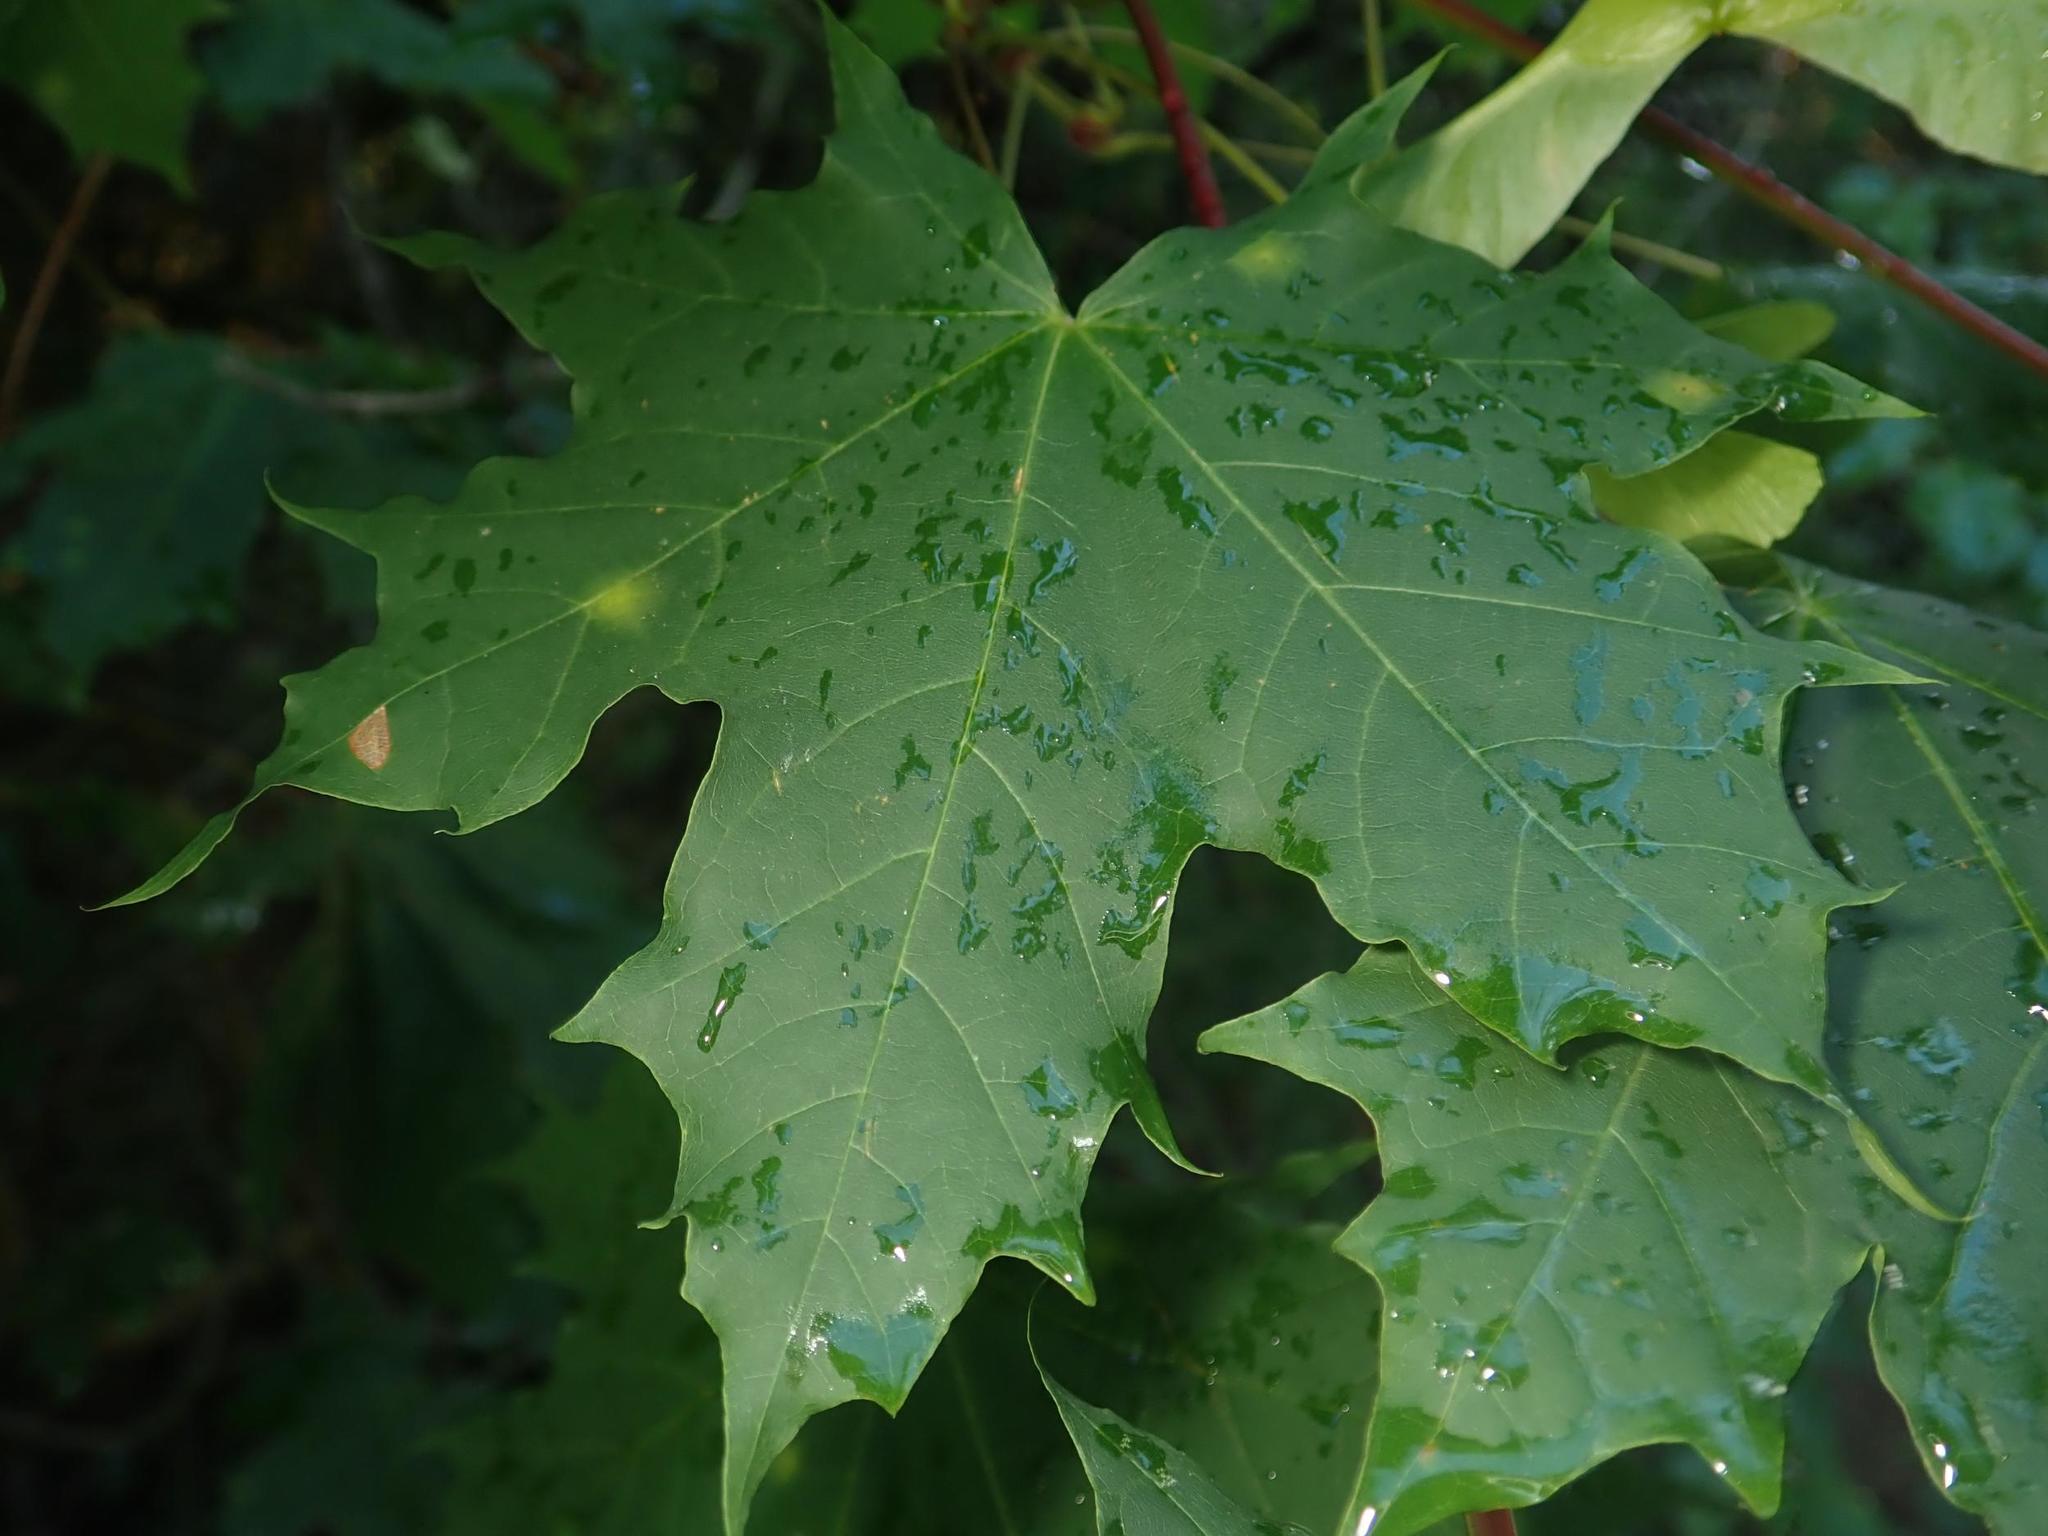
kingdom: Plantae
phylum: Tracheophyta
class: Magnoliopsida
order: Sapindales
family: Sapindaceae
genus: Acer
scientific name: Acer platanoides
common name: Norway maple
